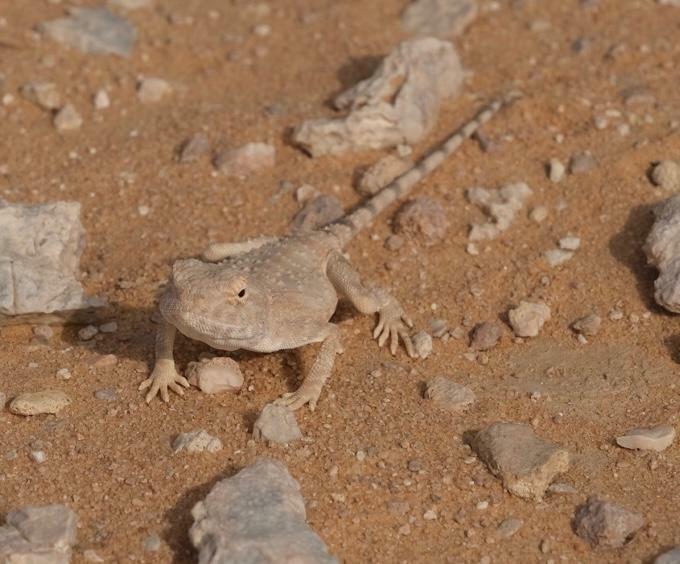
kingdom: Animalia
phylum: Chordata
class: Squamata
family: Agamidae
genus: Trapelus
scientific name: Trapelus agnetae
